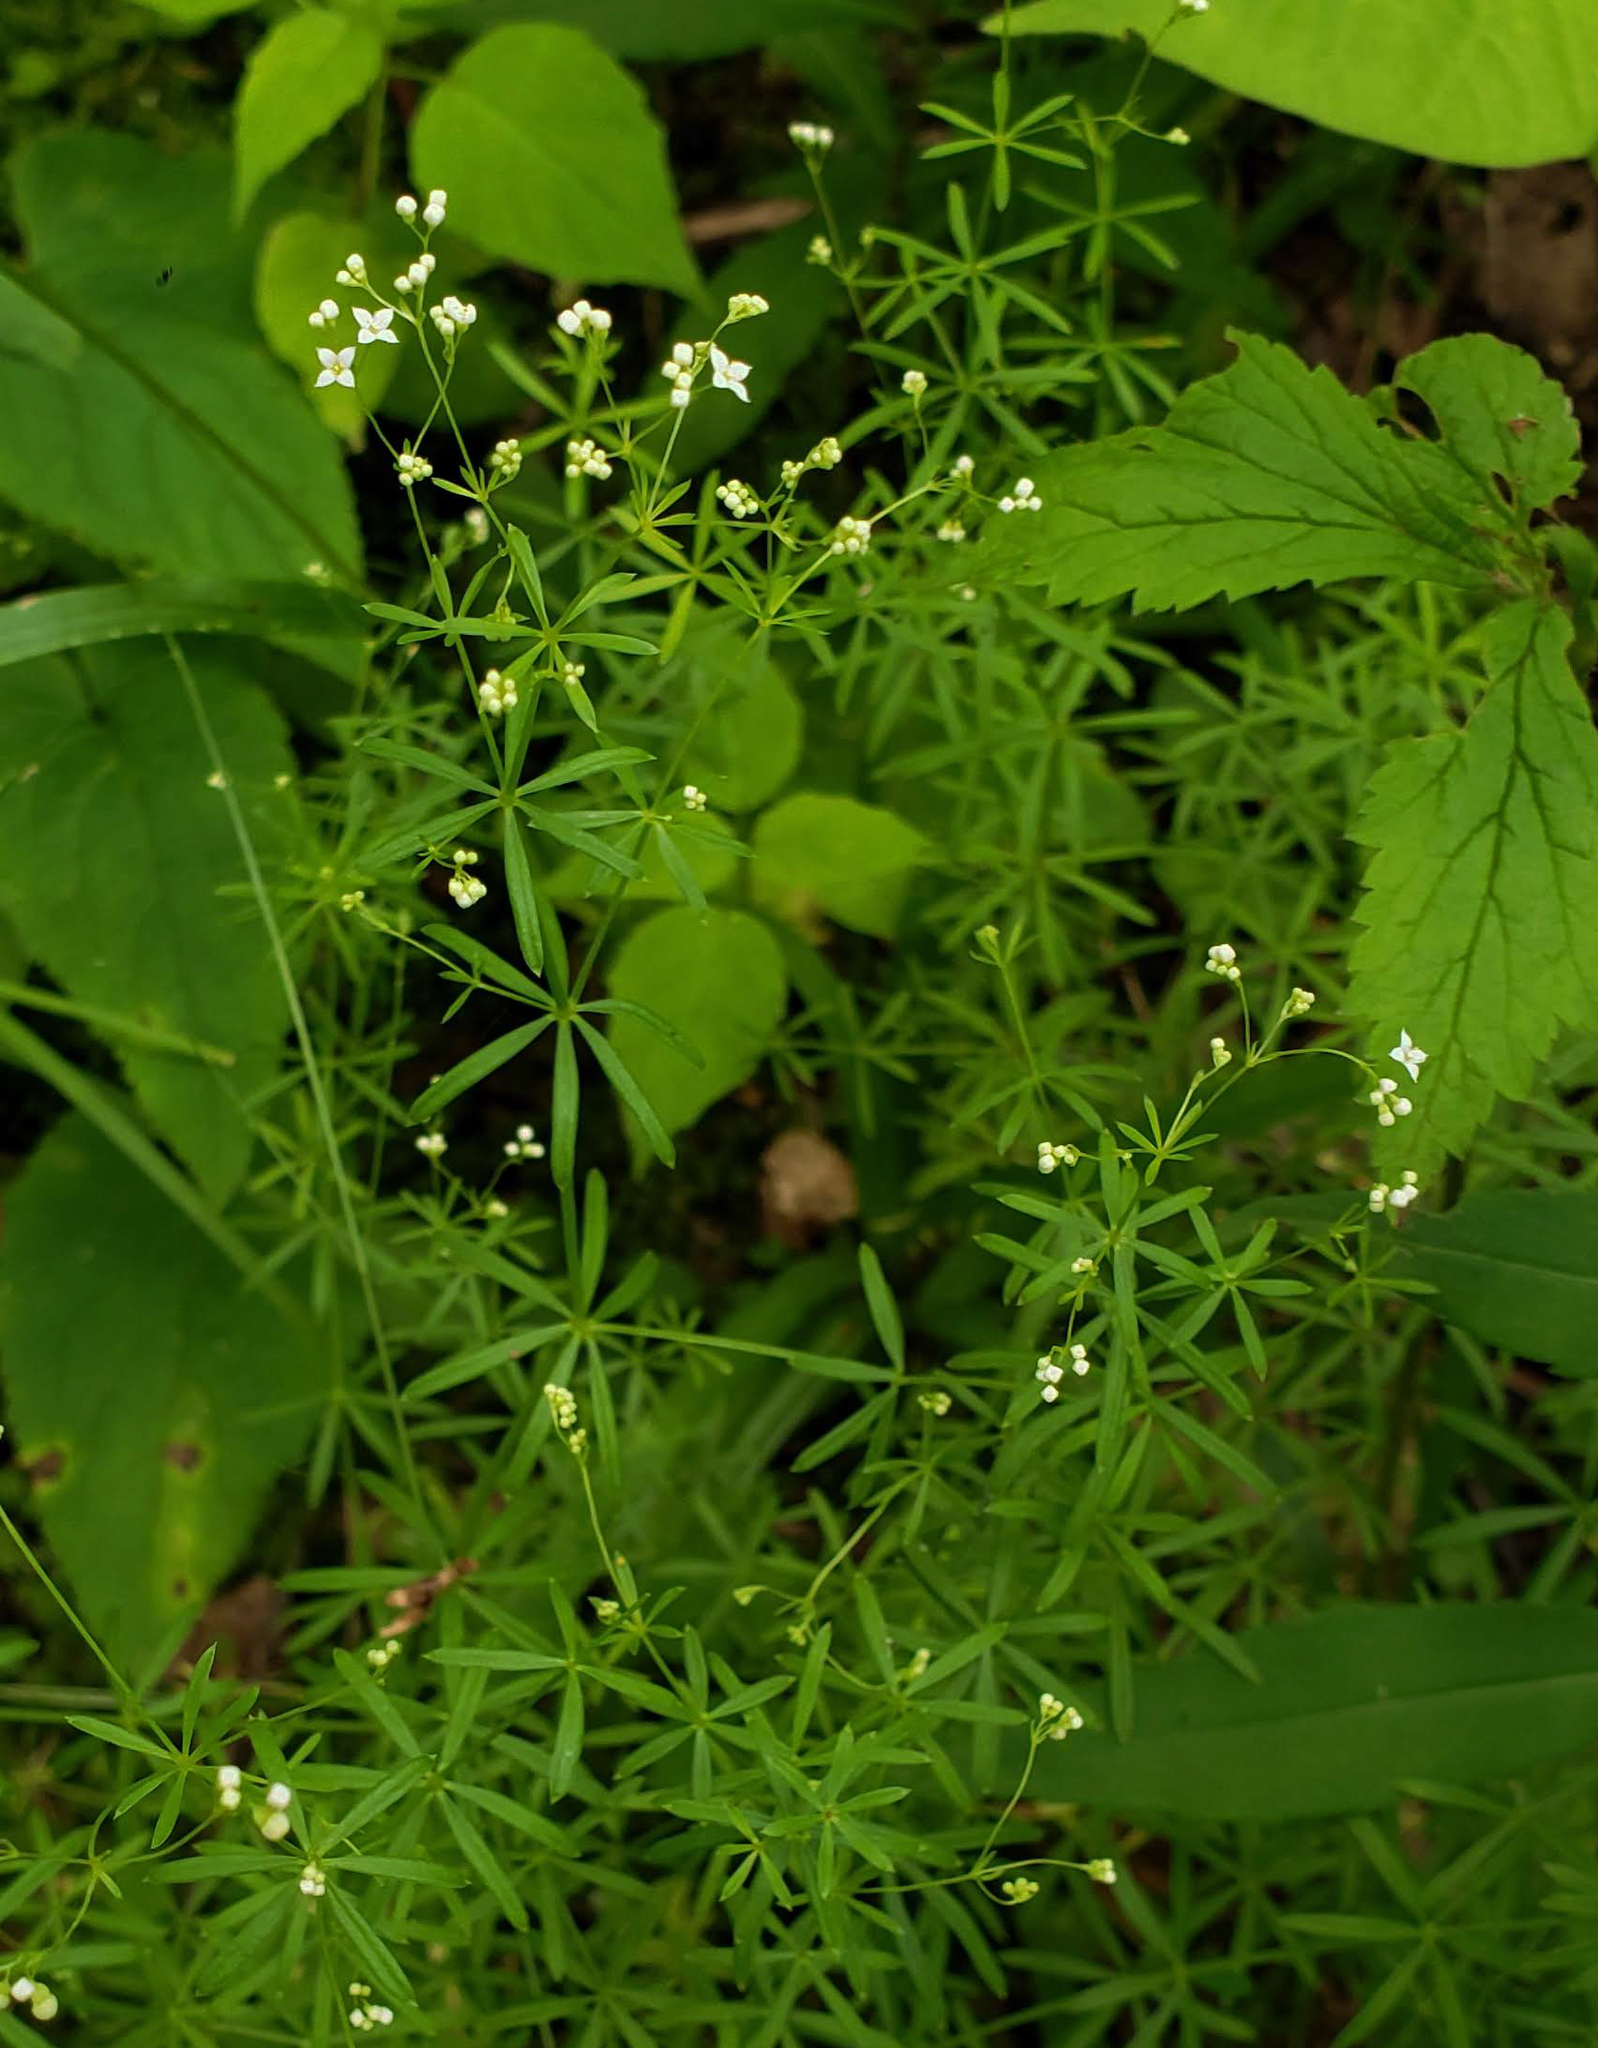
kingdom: Plantae
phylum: Tracheophyta
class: Magnoliopsida
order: Gentianales
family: Rubiaceae
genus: Galium
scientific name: Galium concinnum
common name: Shining bedstraw
